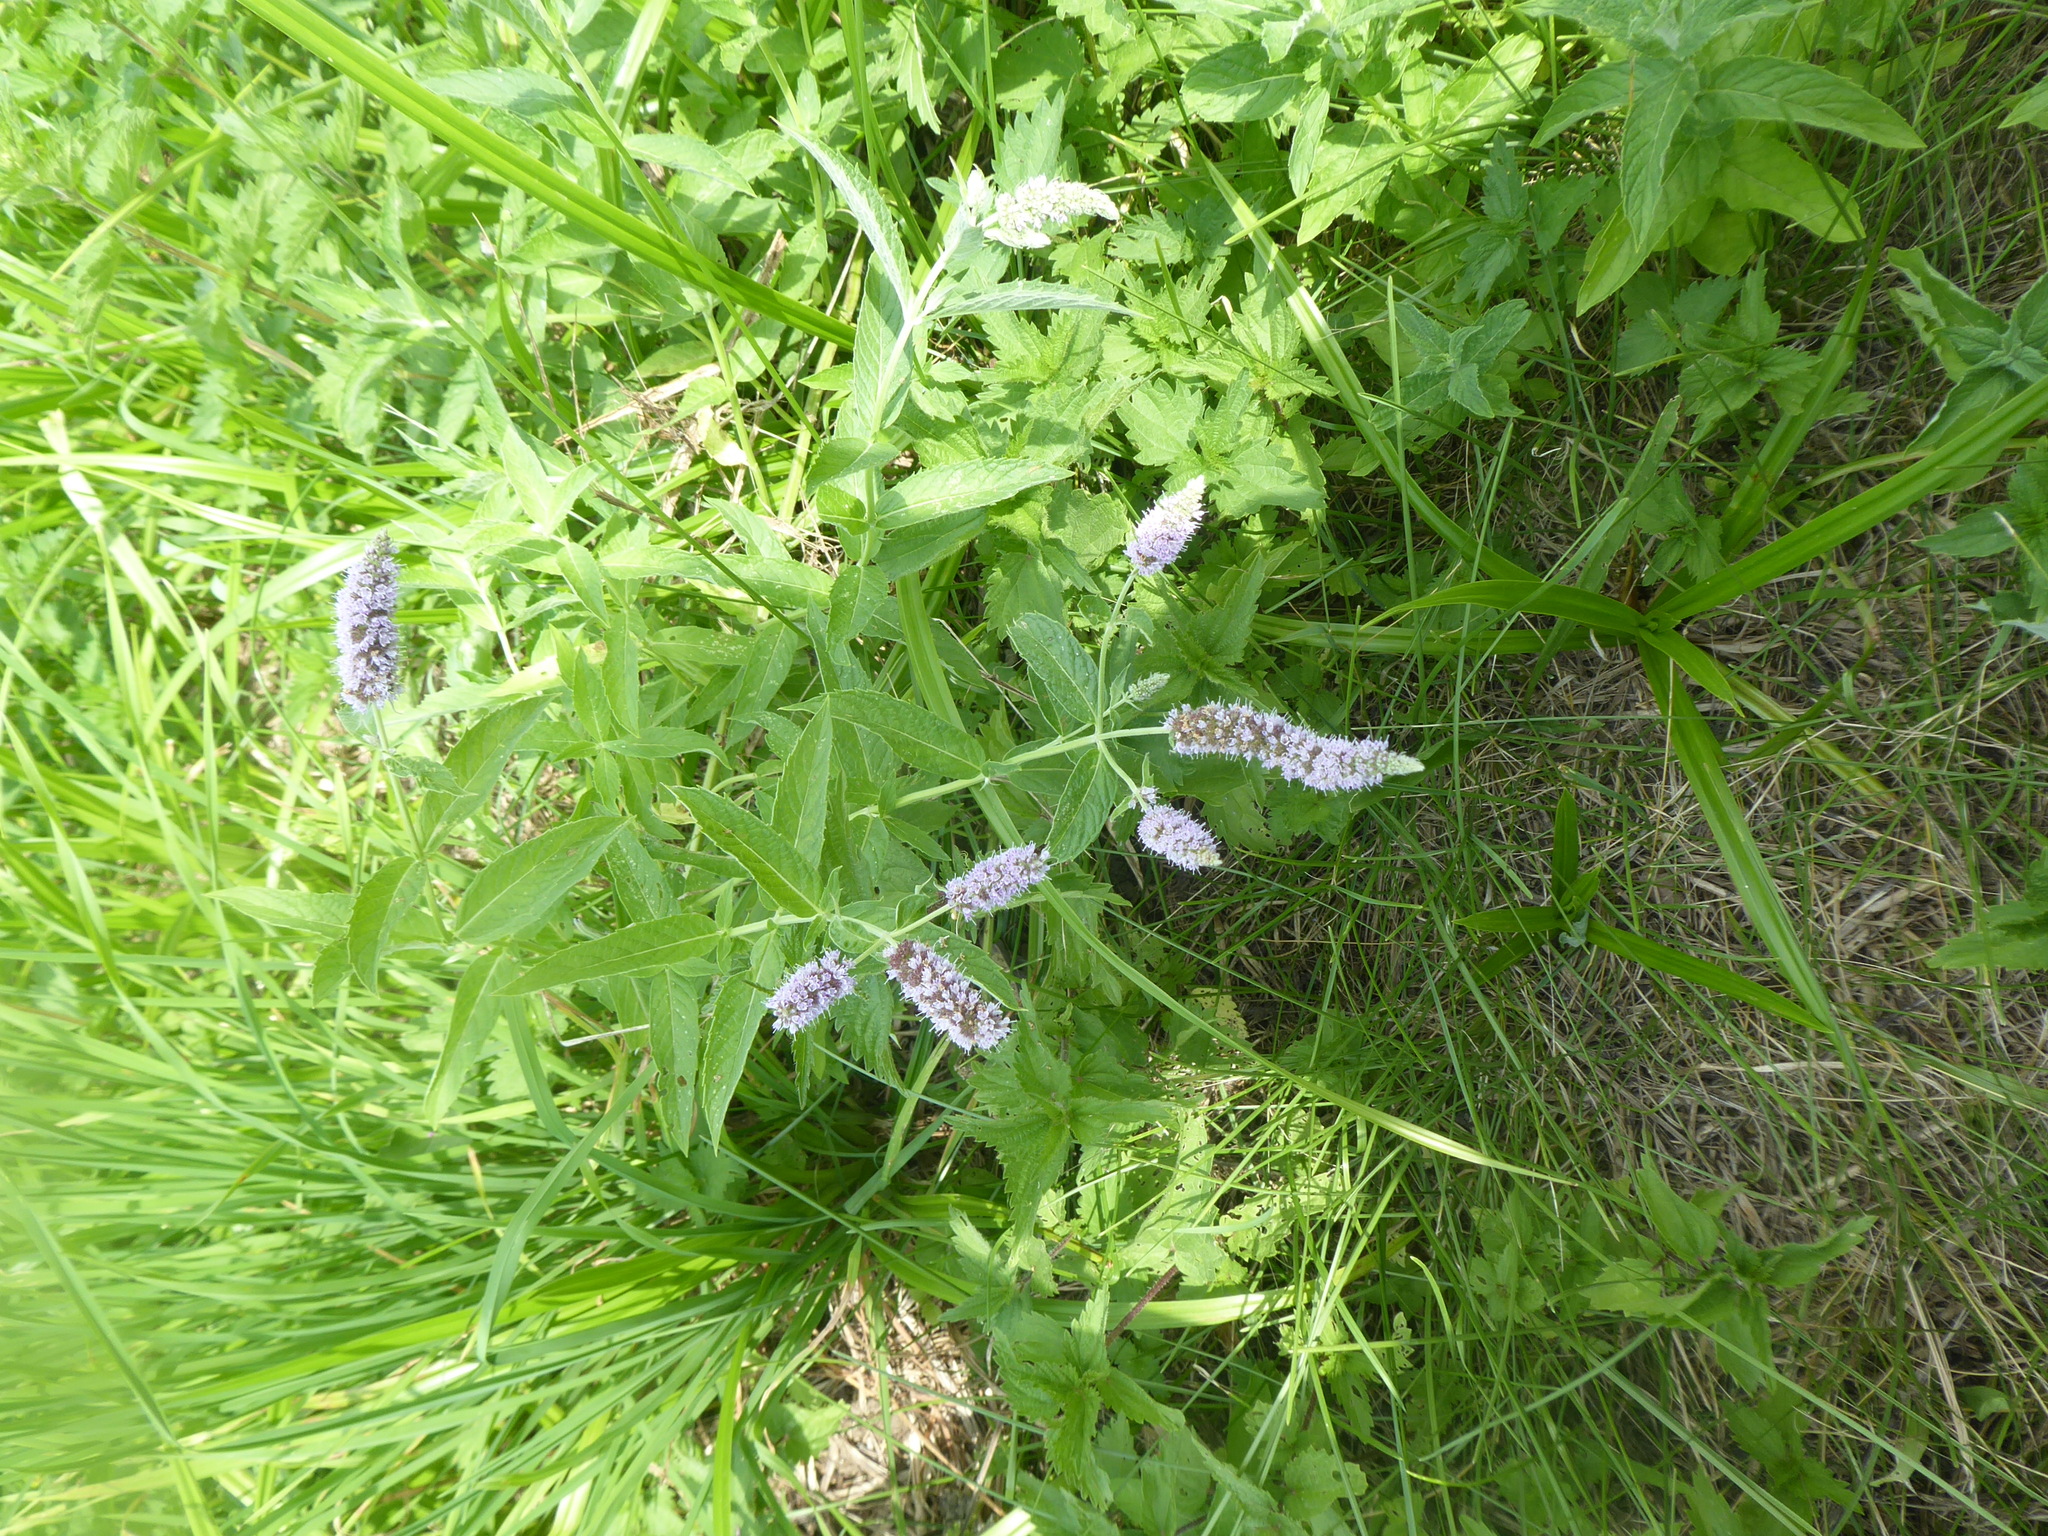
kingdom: Plantae
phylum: Tracheophyta
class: Magnoliopsida
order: Lamiales
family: Lamiaceae
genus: Mentha
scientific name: Mentha longifolia
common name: Horse mint
